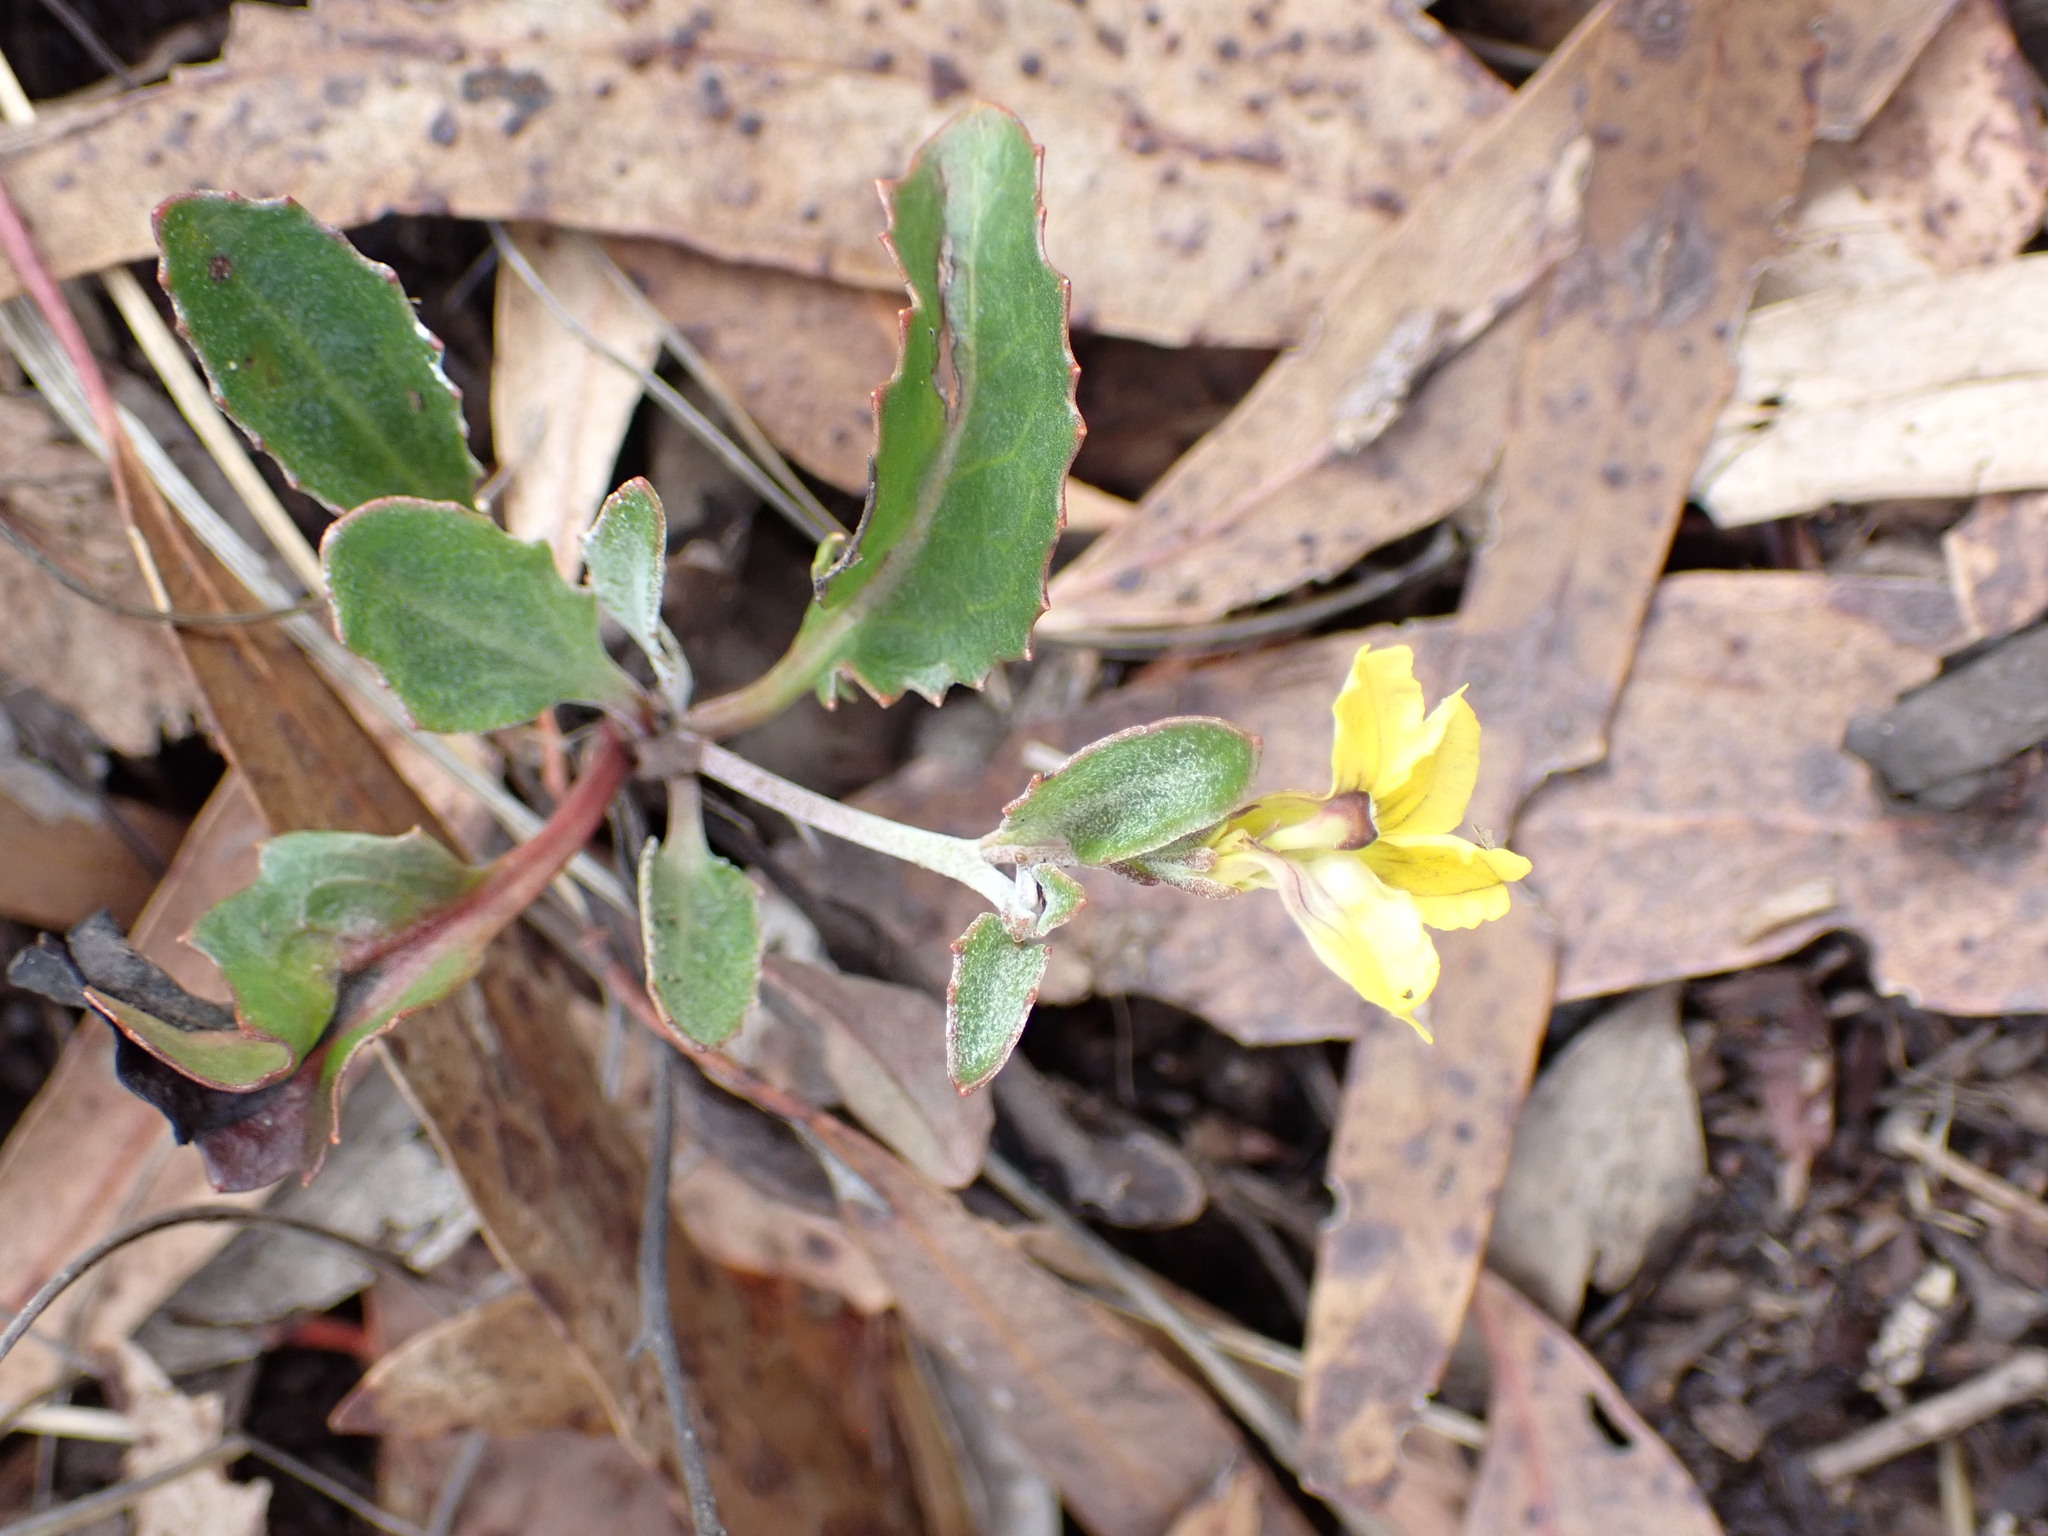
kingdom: Plantae
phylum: Tracheophyta
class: Magnoliopsida
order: Asterales
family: Goodeniaceae
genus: Goodenia
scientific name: Goodenia hederacea
